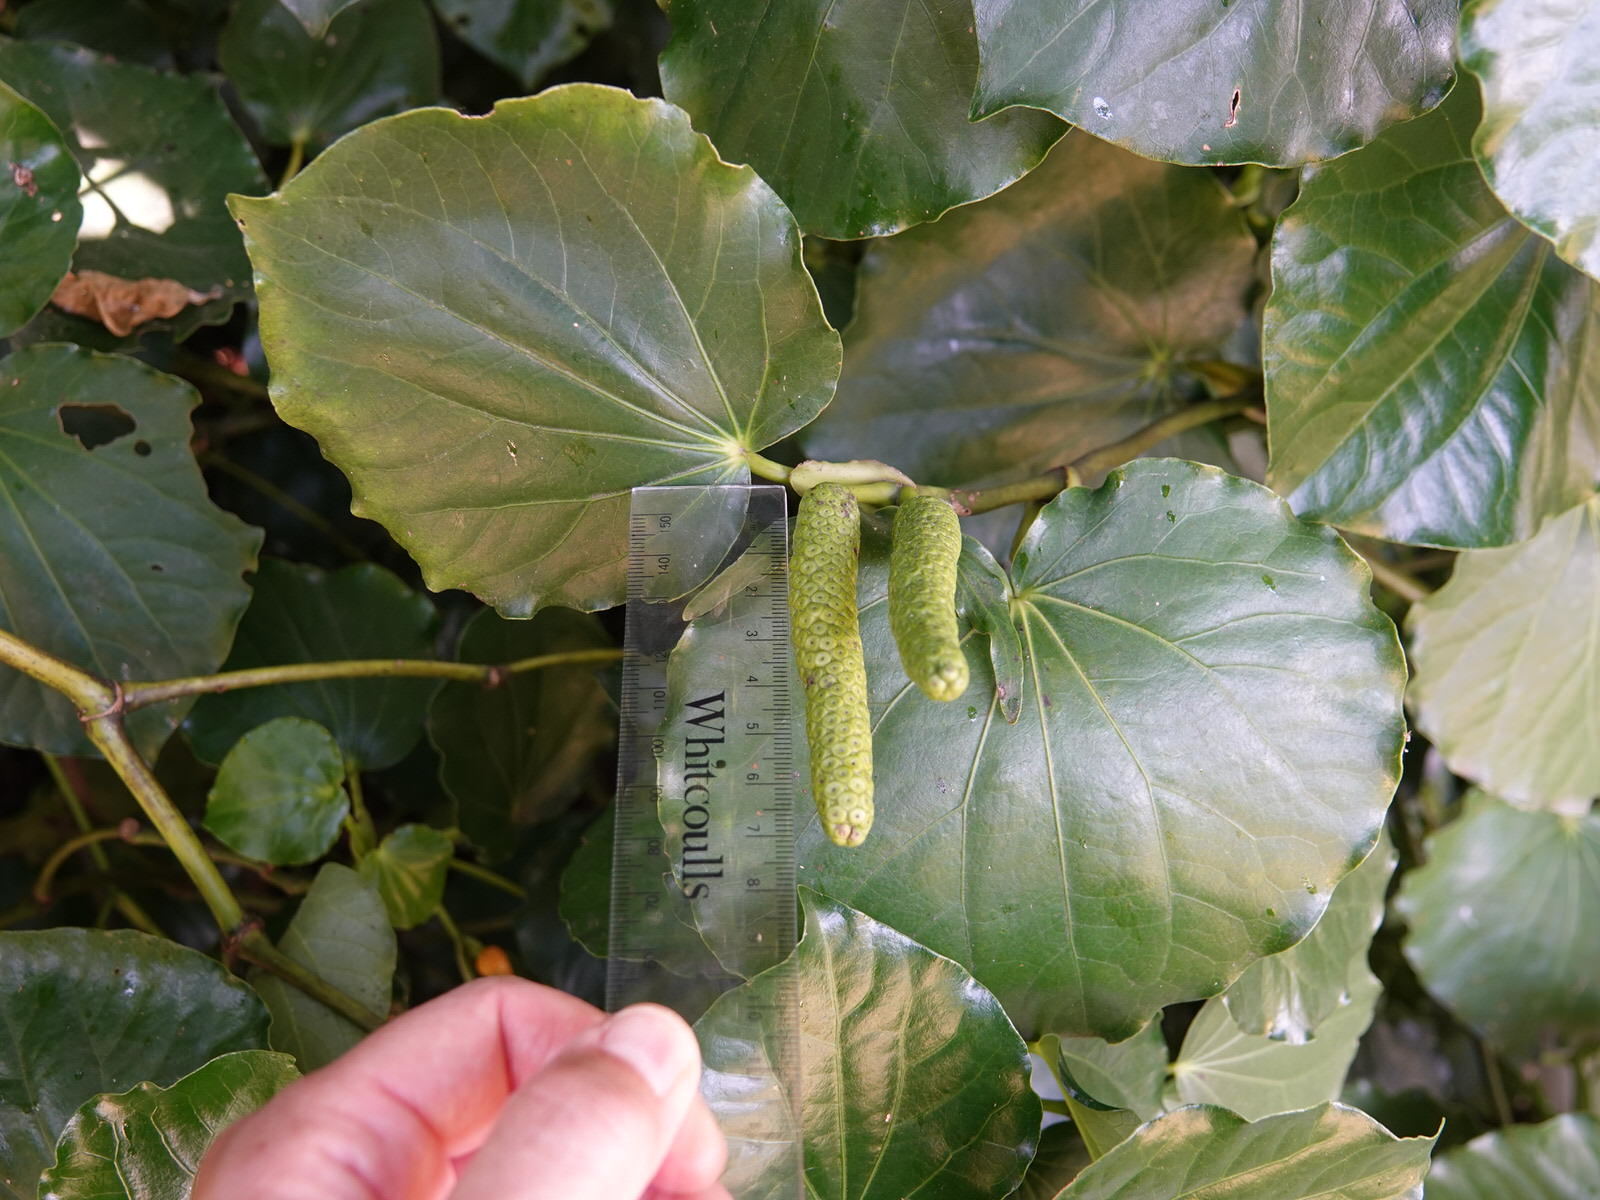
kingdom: Plantae
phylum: Tracheophyta
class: Magnoliopsida
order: Piperales
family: Piperaceae
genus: Macropiper
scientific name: Macropiper excelsum
